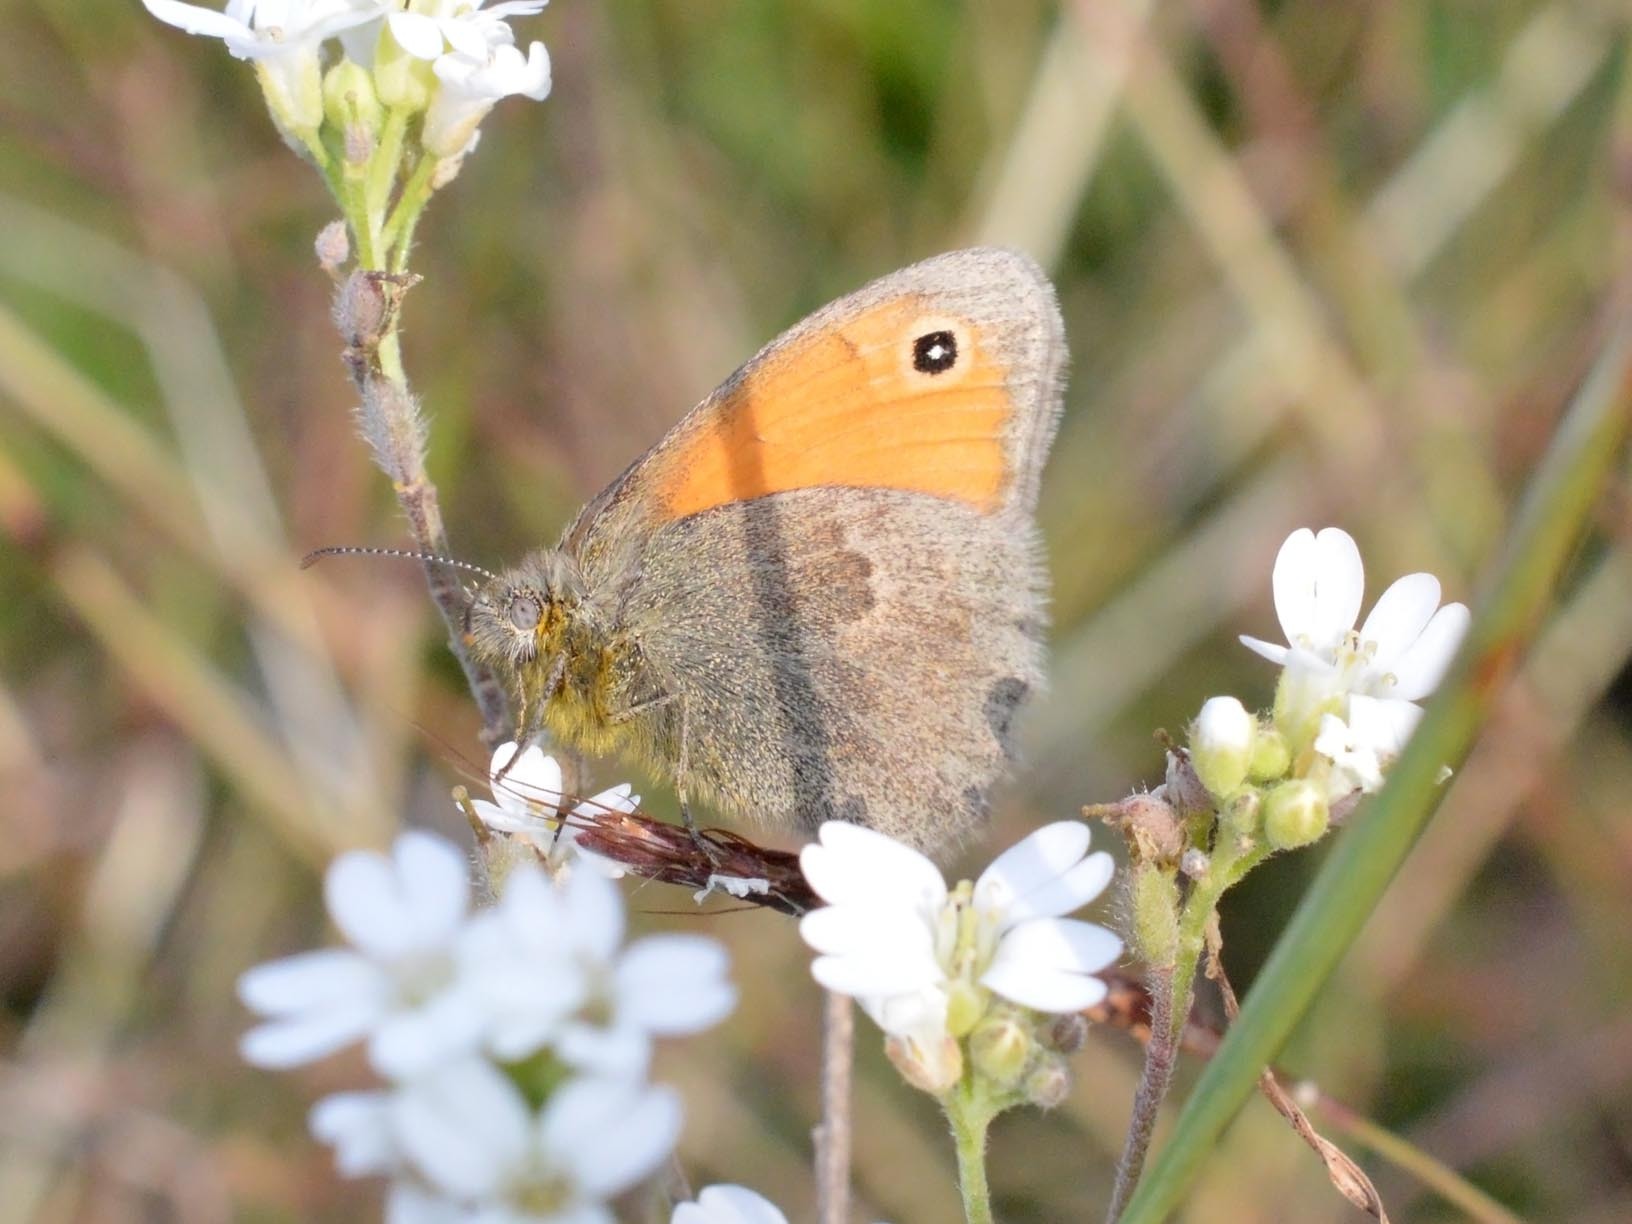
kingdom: Animalia
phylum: Arthropoda
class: Insecta
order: Lepidoptera
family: Nymphalidae
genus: Coenonympha
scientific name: Coenonympha pamphilus
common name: Small heath
